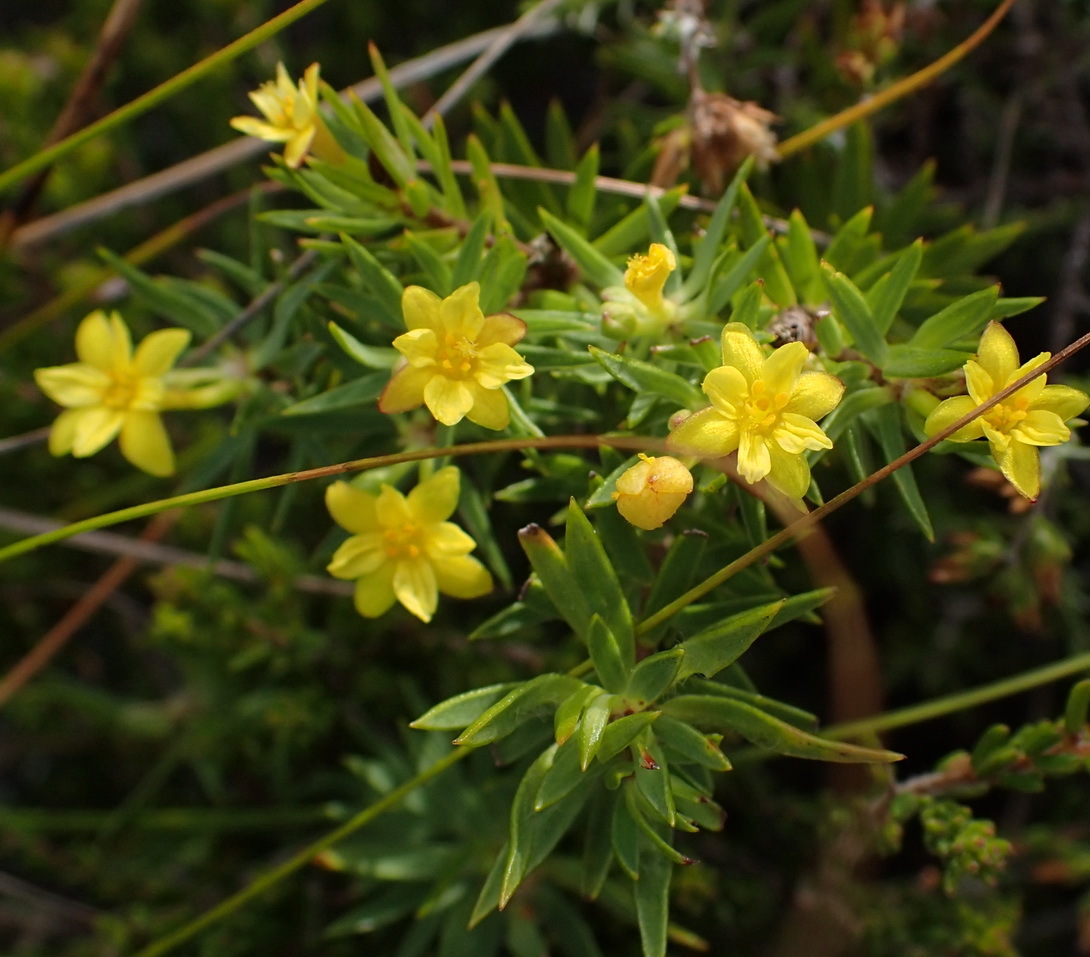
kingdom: Plantae
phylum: Tracheophyta
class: Magnoliopsida
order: Malvales
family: Thymelaeaceae
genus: Gnidia
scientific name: Gnidia simplex
